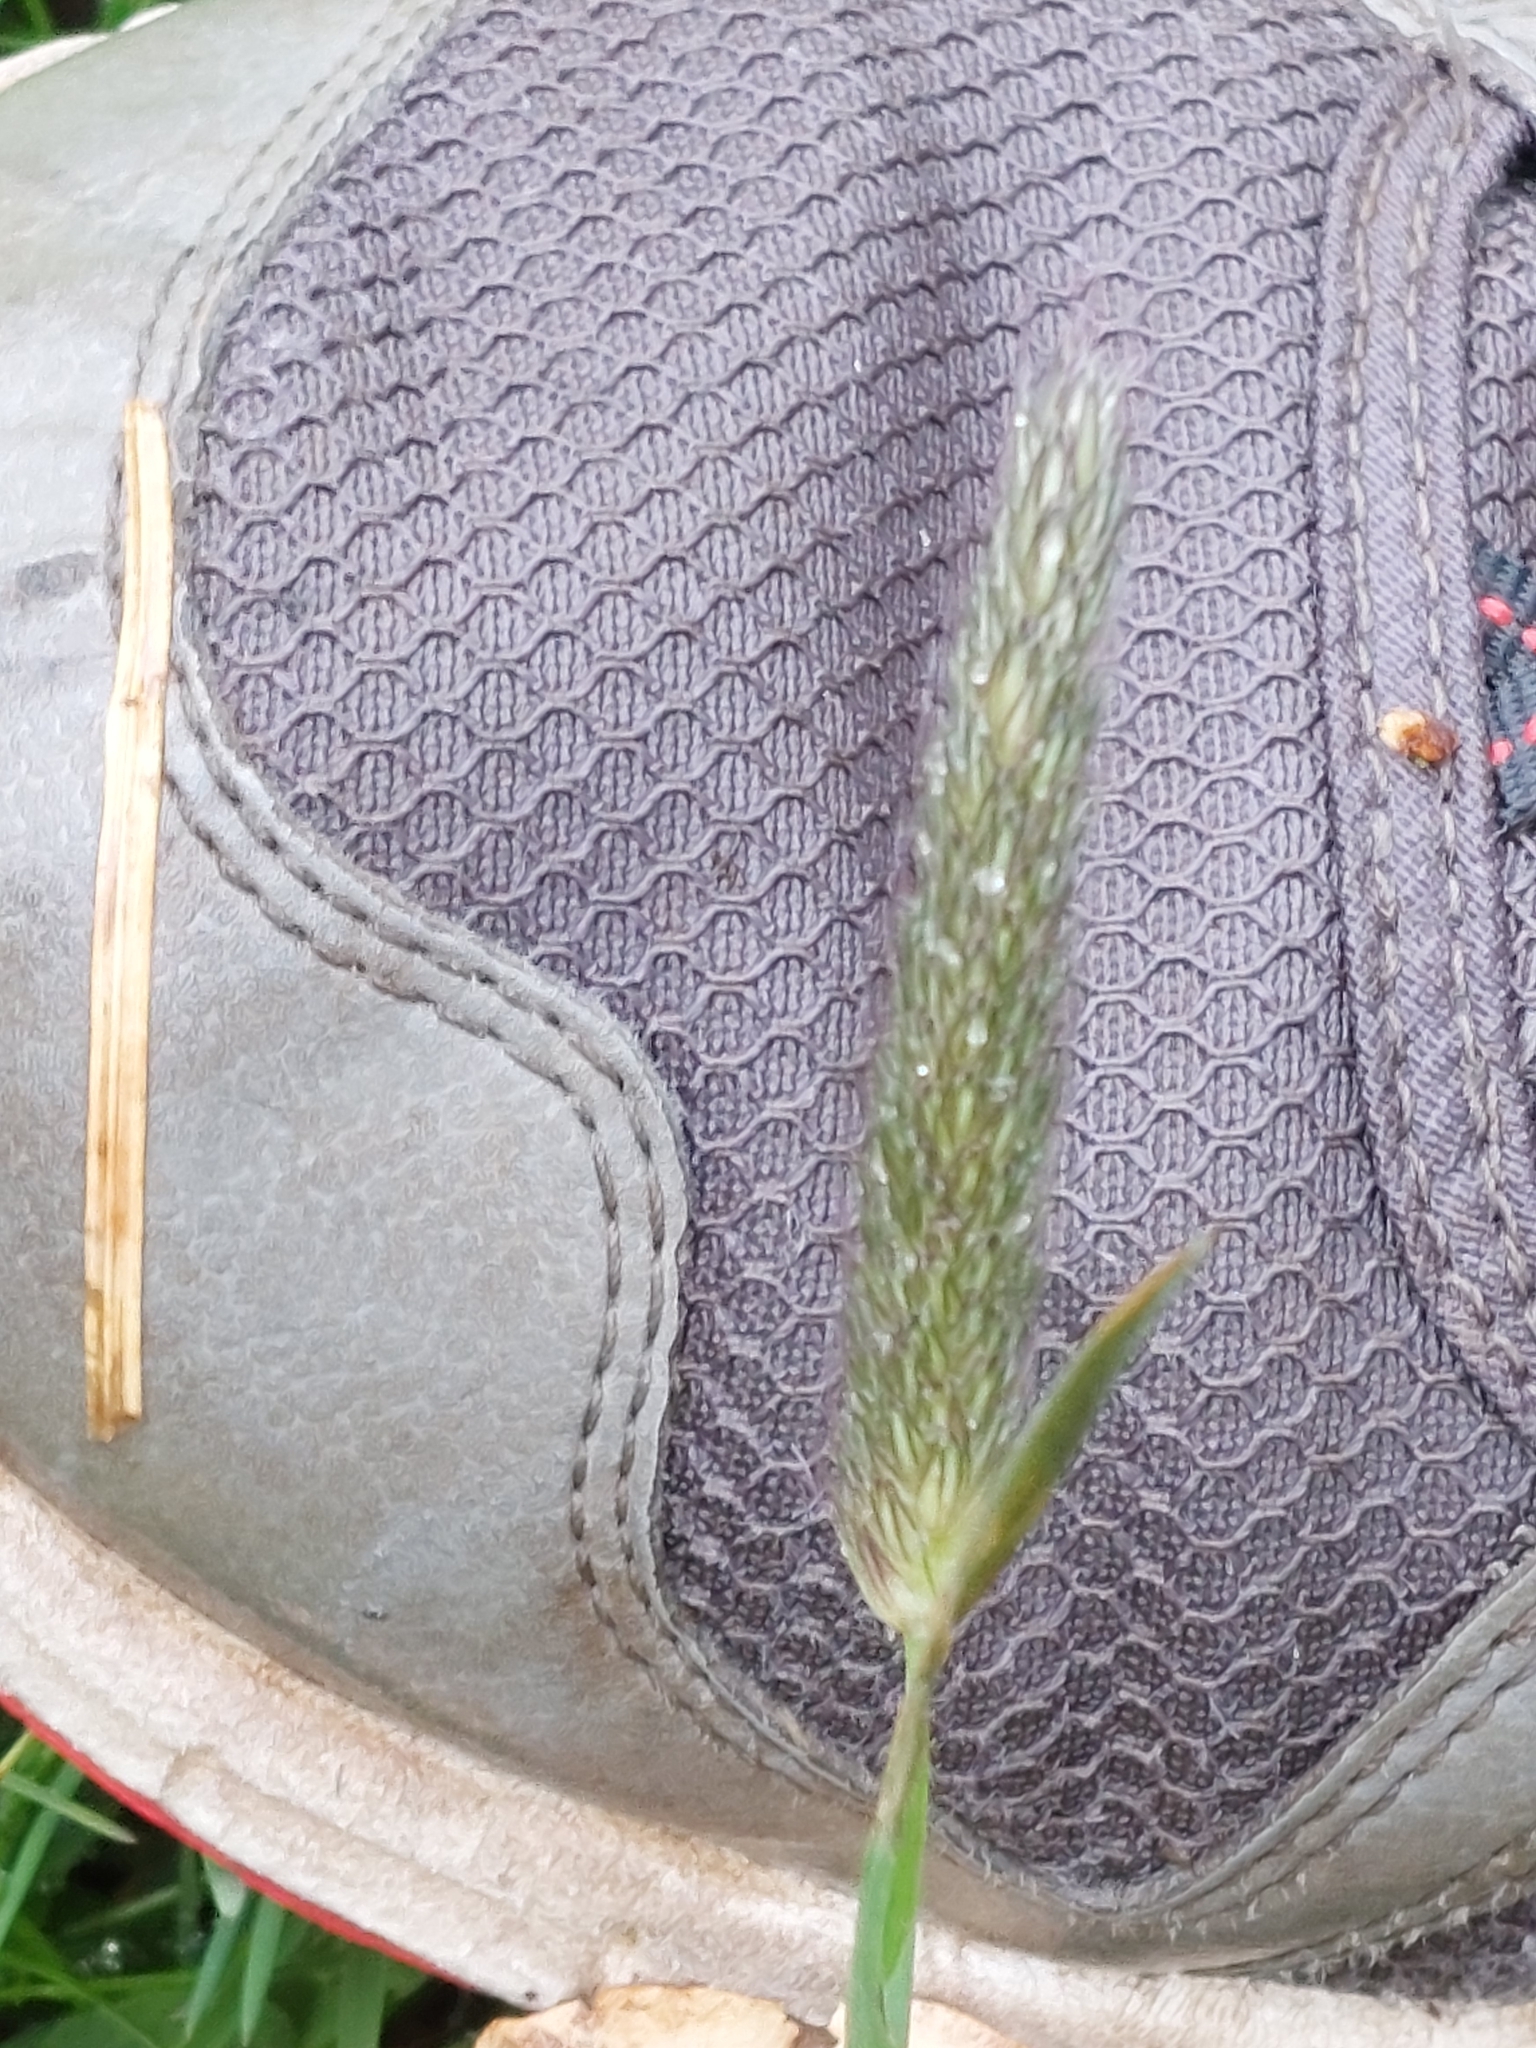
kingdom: Plantae
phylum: Tracheophyta
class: Liliopsida
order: Poales
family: Poaceae
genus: Alopecurus
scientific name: Alopecurus pratensis
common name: Meadow foxtail
